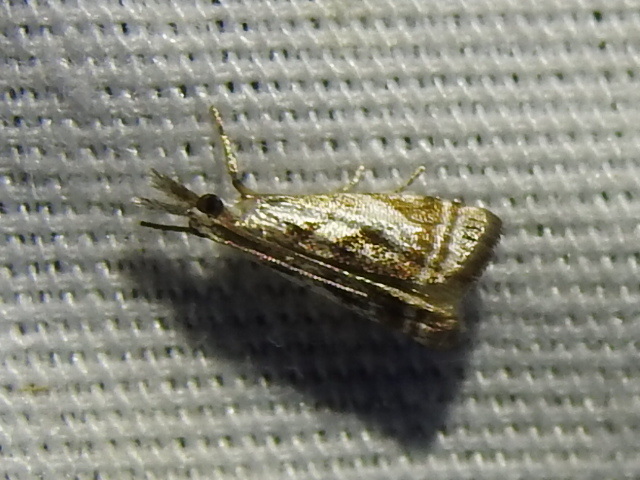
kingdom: Animalia
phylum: Arthropoda
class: Insecta
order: Lepidoptera
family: Crambidae
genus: Microcrambus
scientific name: Microcrambus elegans
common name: Elegant grass-veneer
